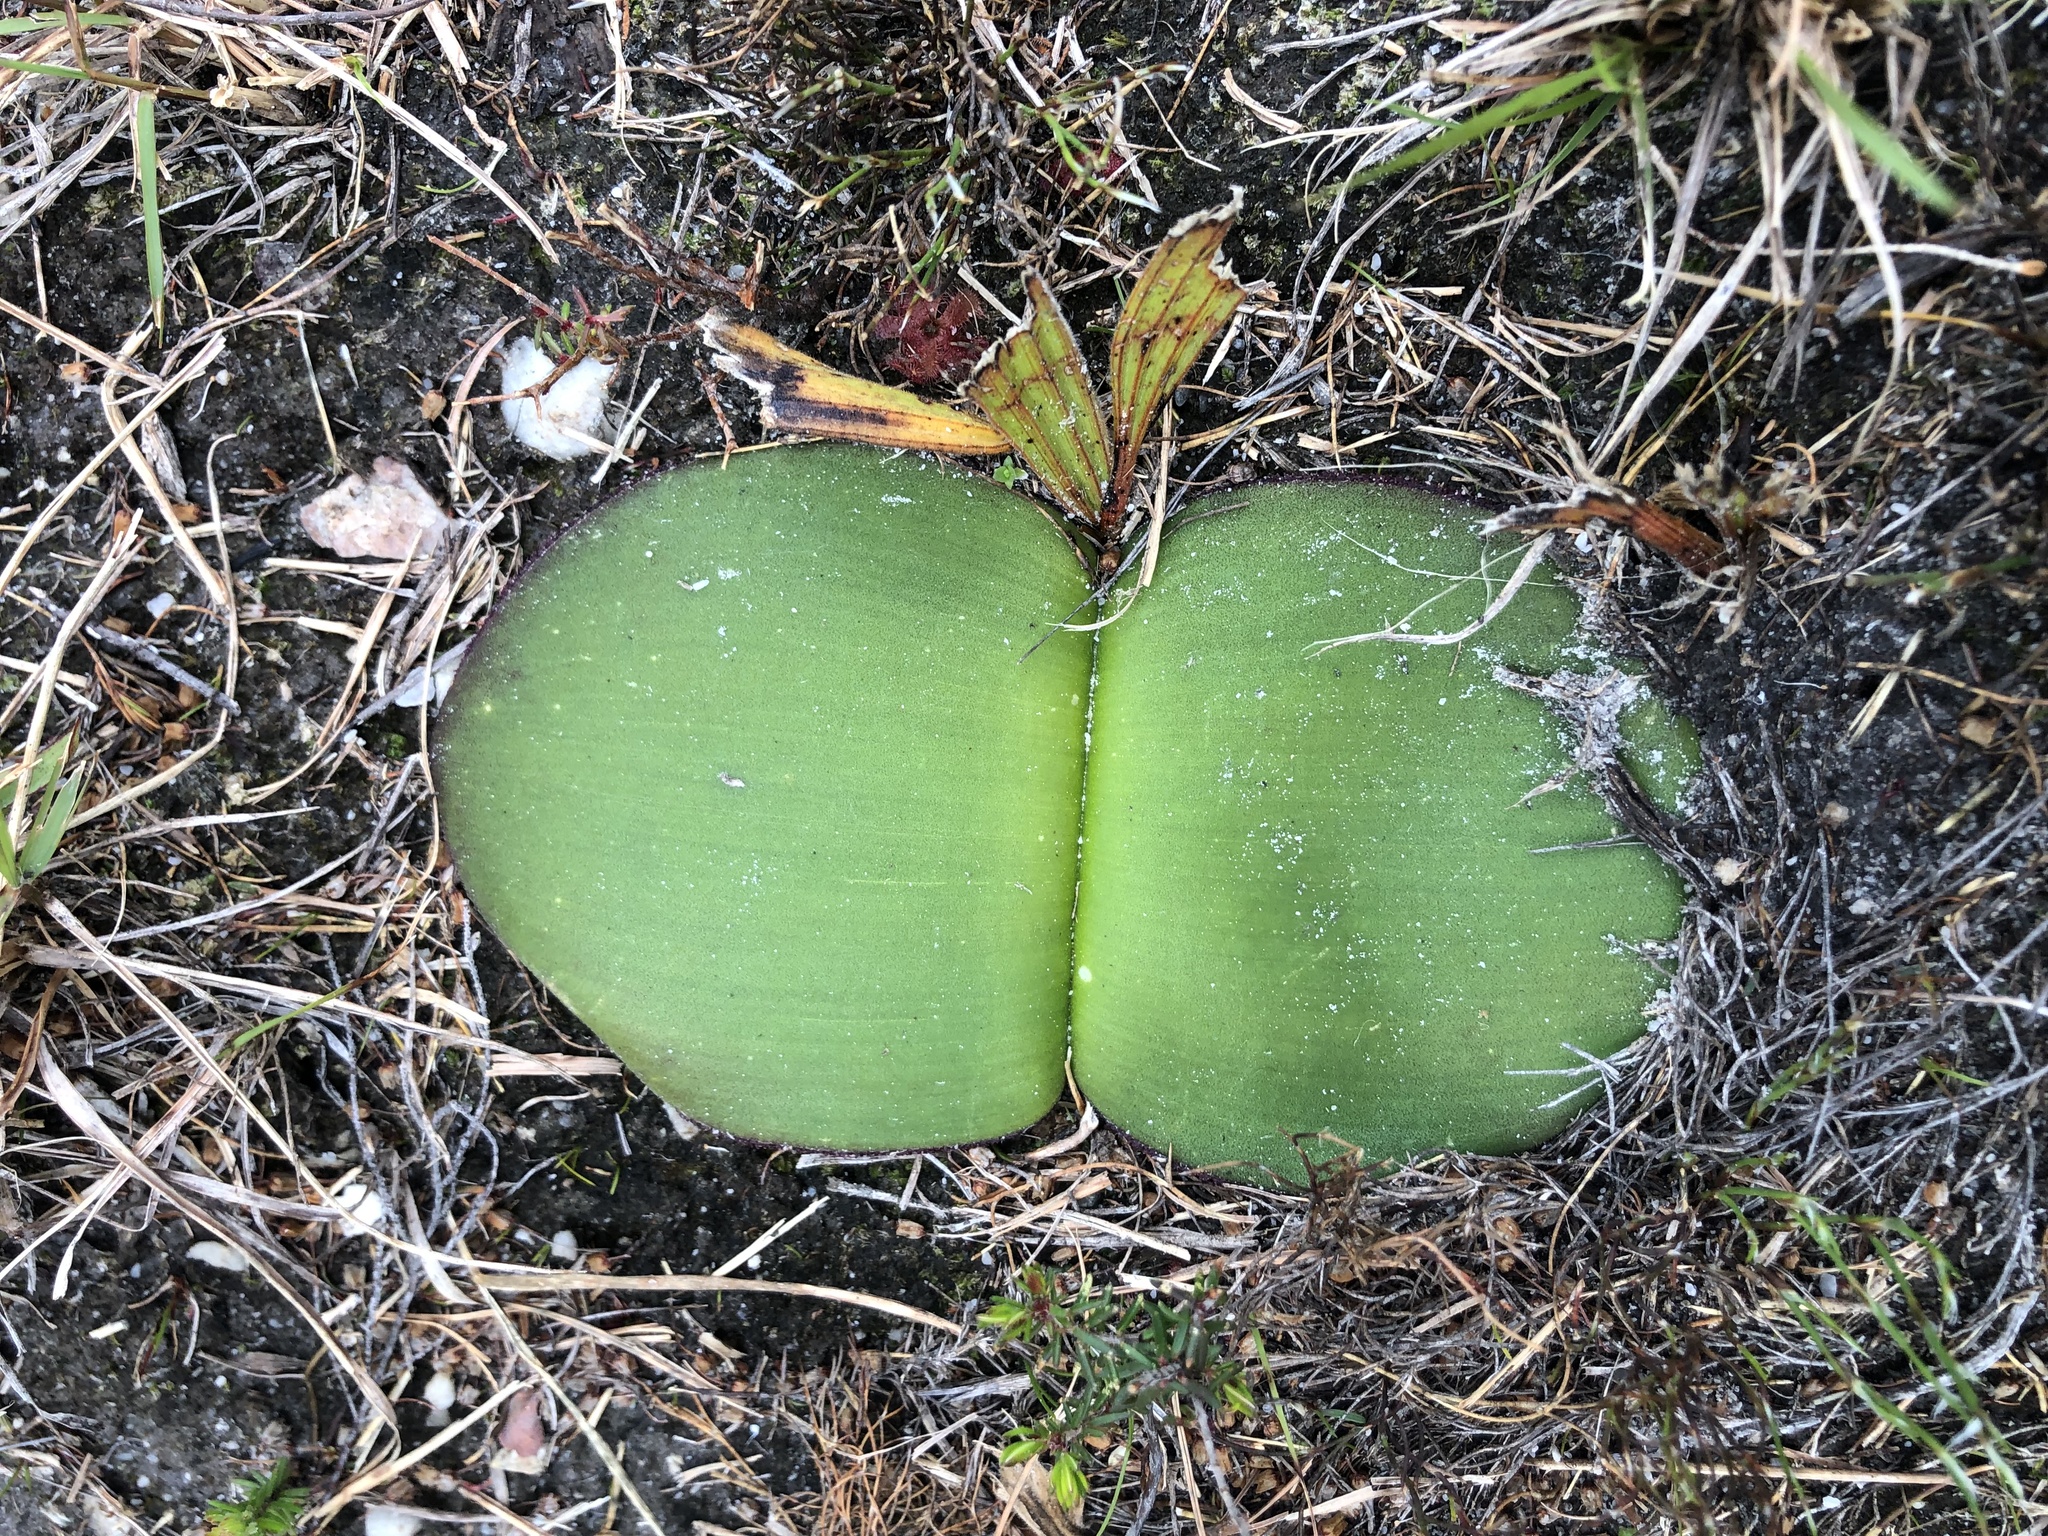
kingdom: Plantae
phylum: Tracheophyta
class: Liliopsida
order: Asparagales
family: Amaryllidaceae
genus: Haemanthus
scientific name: Haemanthus sanguineus
